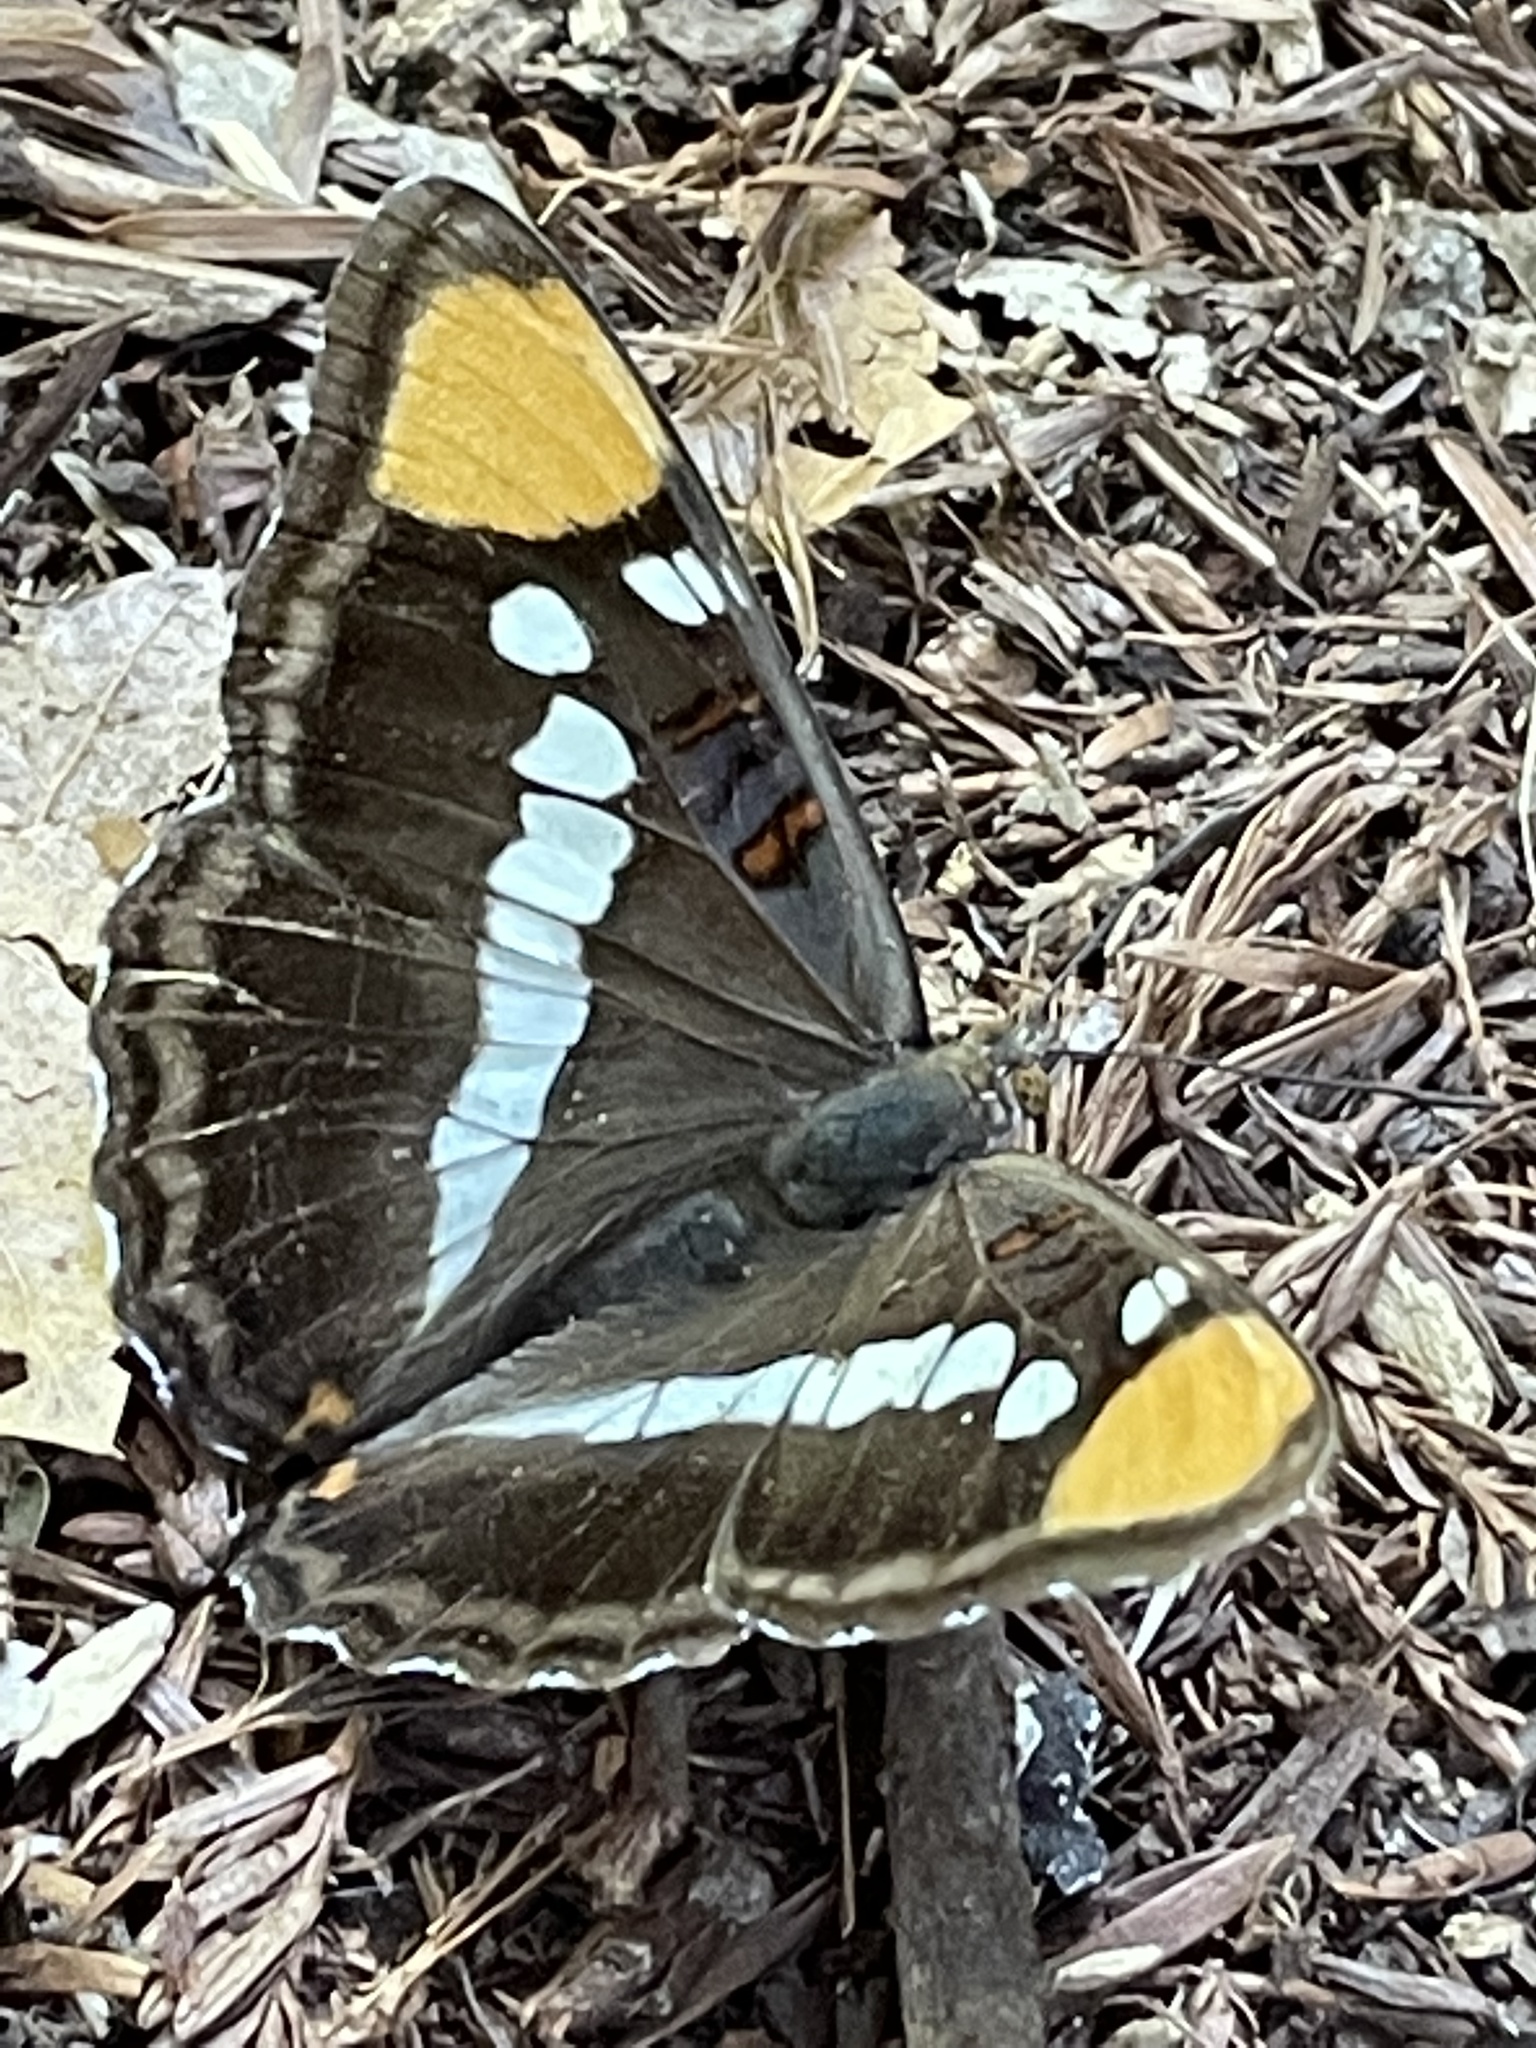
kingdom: Animalia
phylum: Arthropoda
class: Insecta
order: Lepidoptera
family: Nymphalidae
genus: Limenitis
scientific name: Limenitis bredowii
